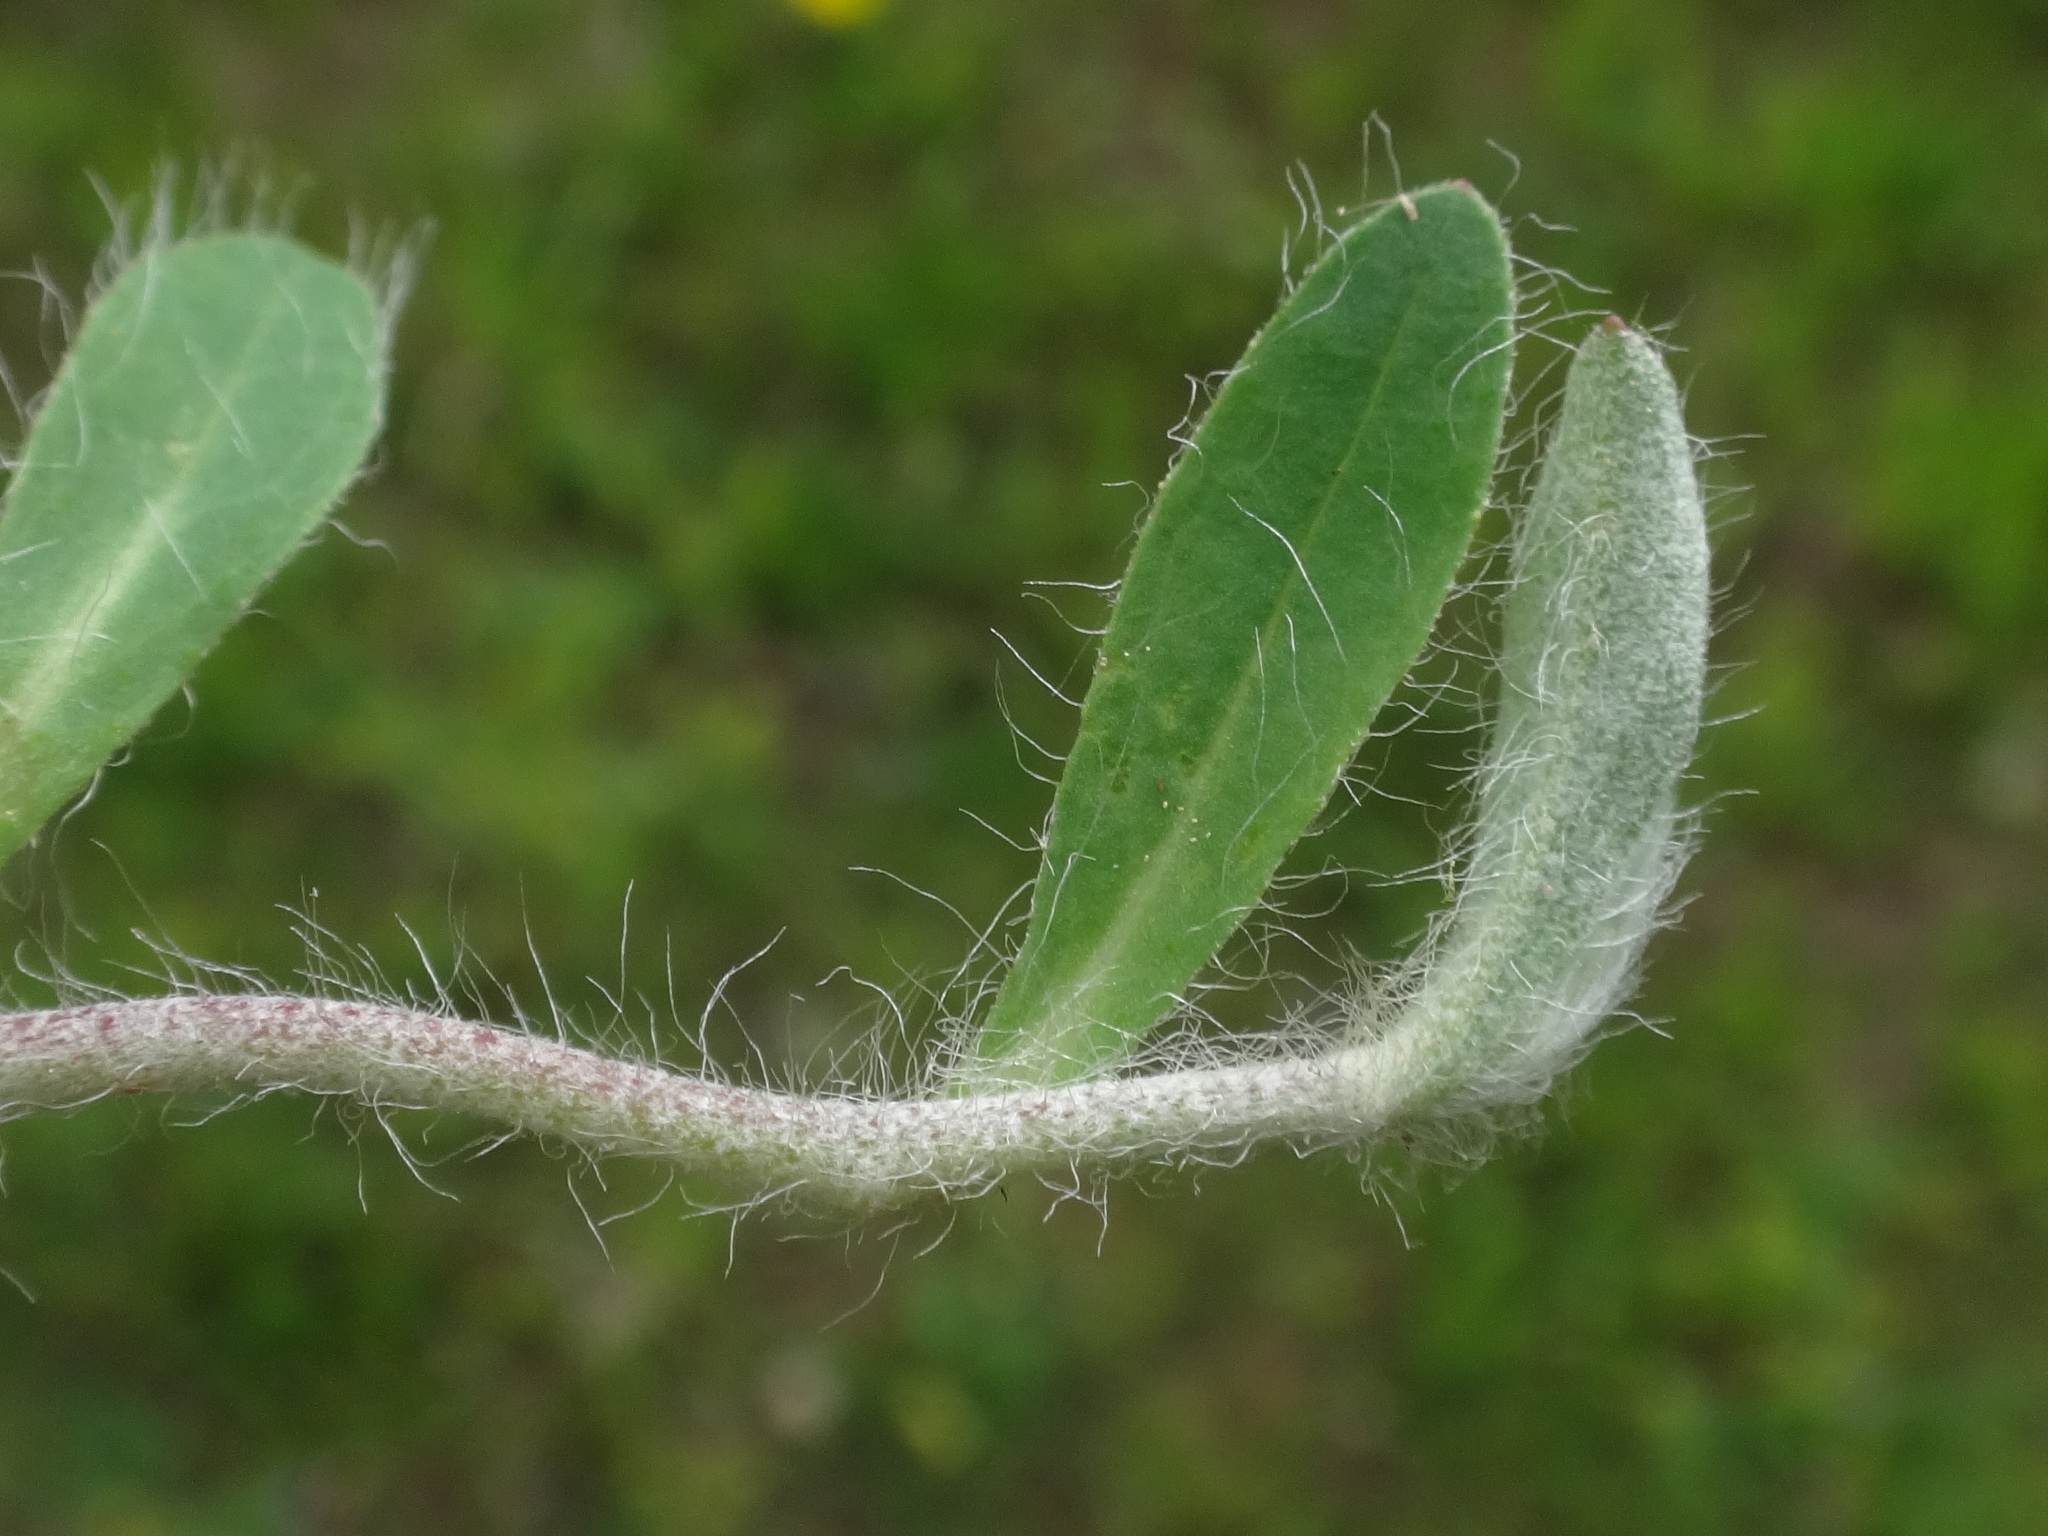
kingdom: Plantae
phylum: Tracheophyta
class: Magnoliopsida
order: Asterales
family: Asteraceae
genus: Pilosella
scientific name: Pilosella officinarum
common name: Mouse-ear hawkweed
